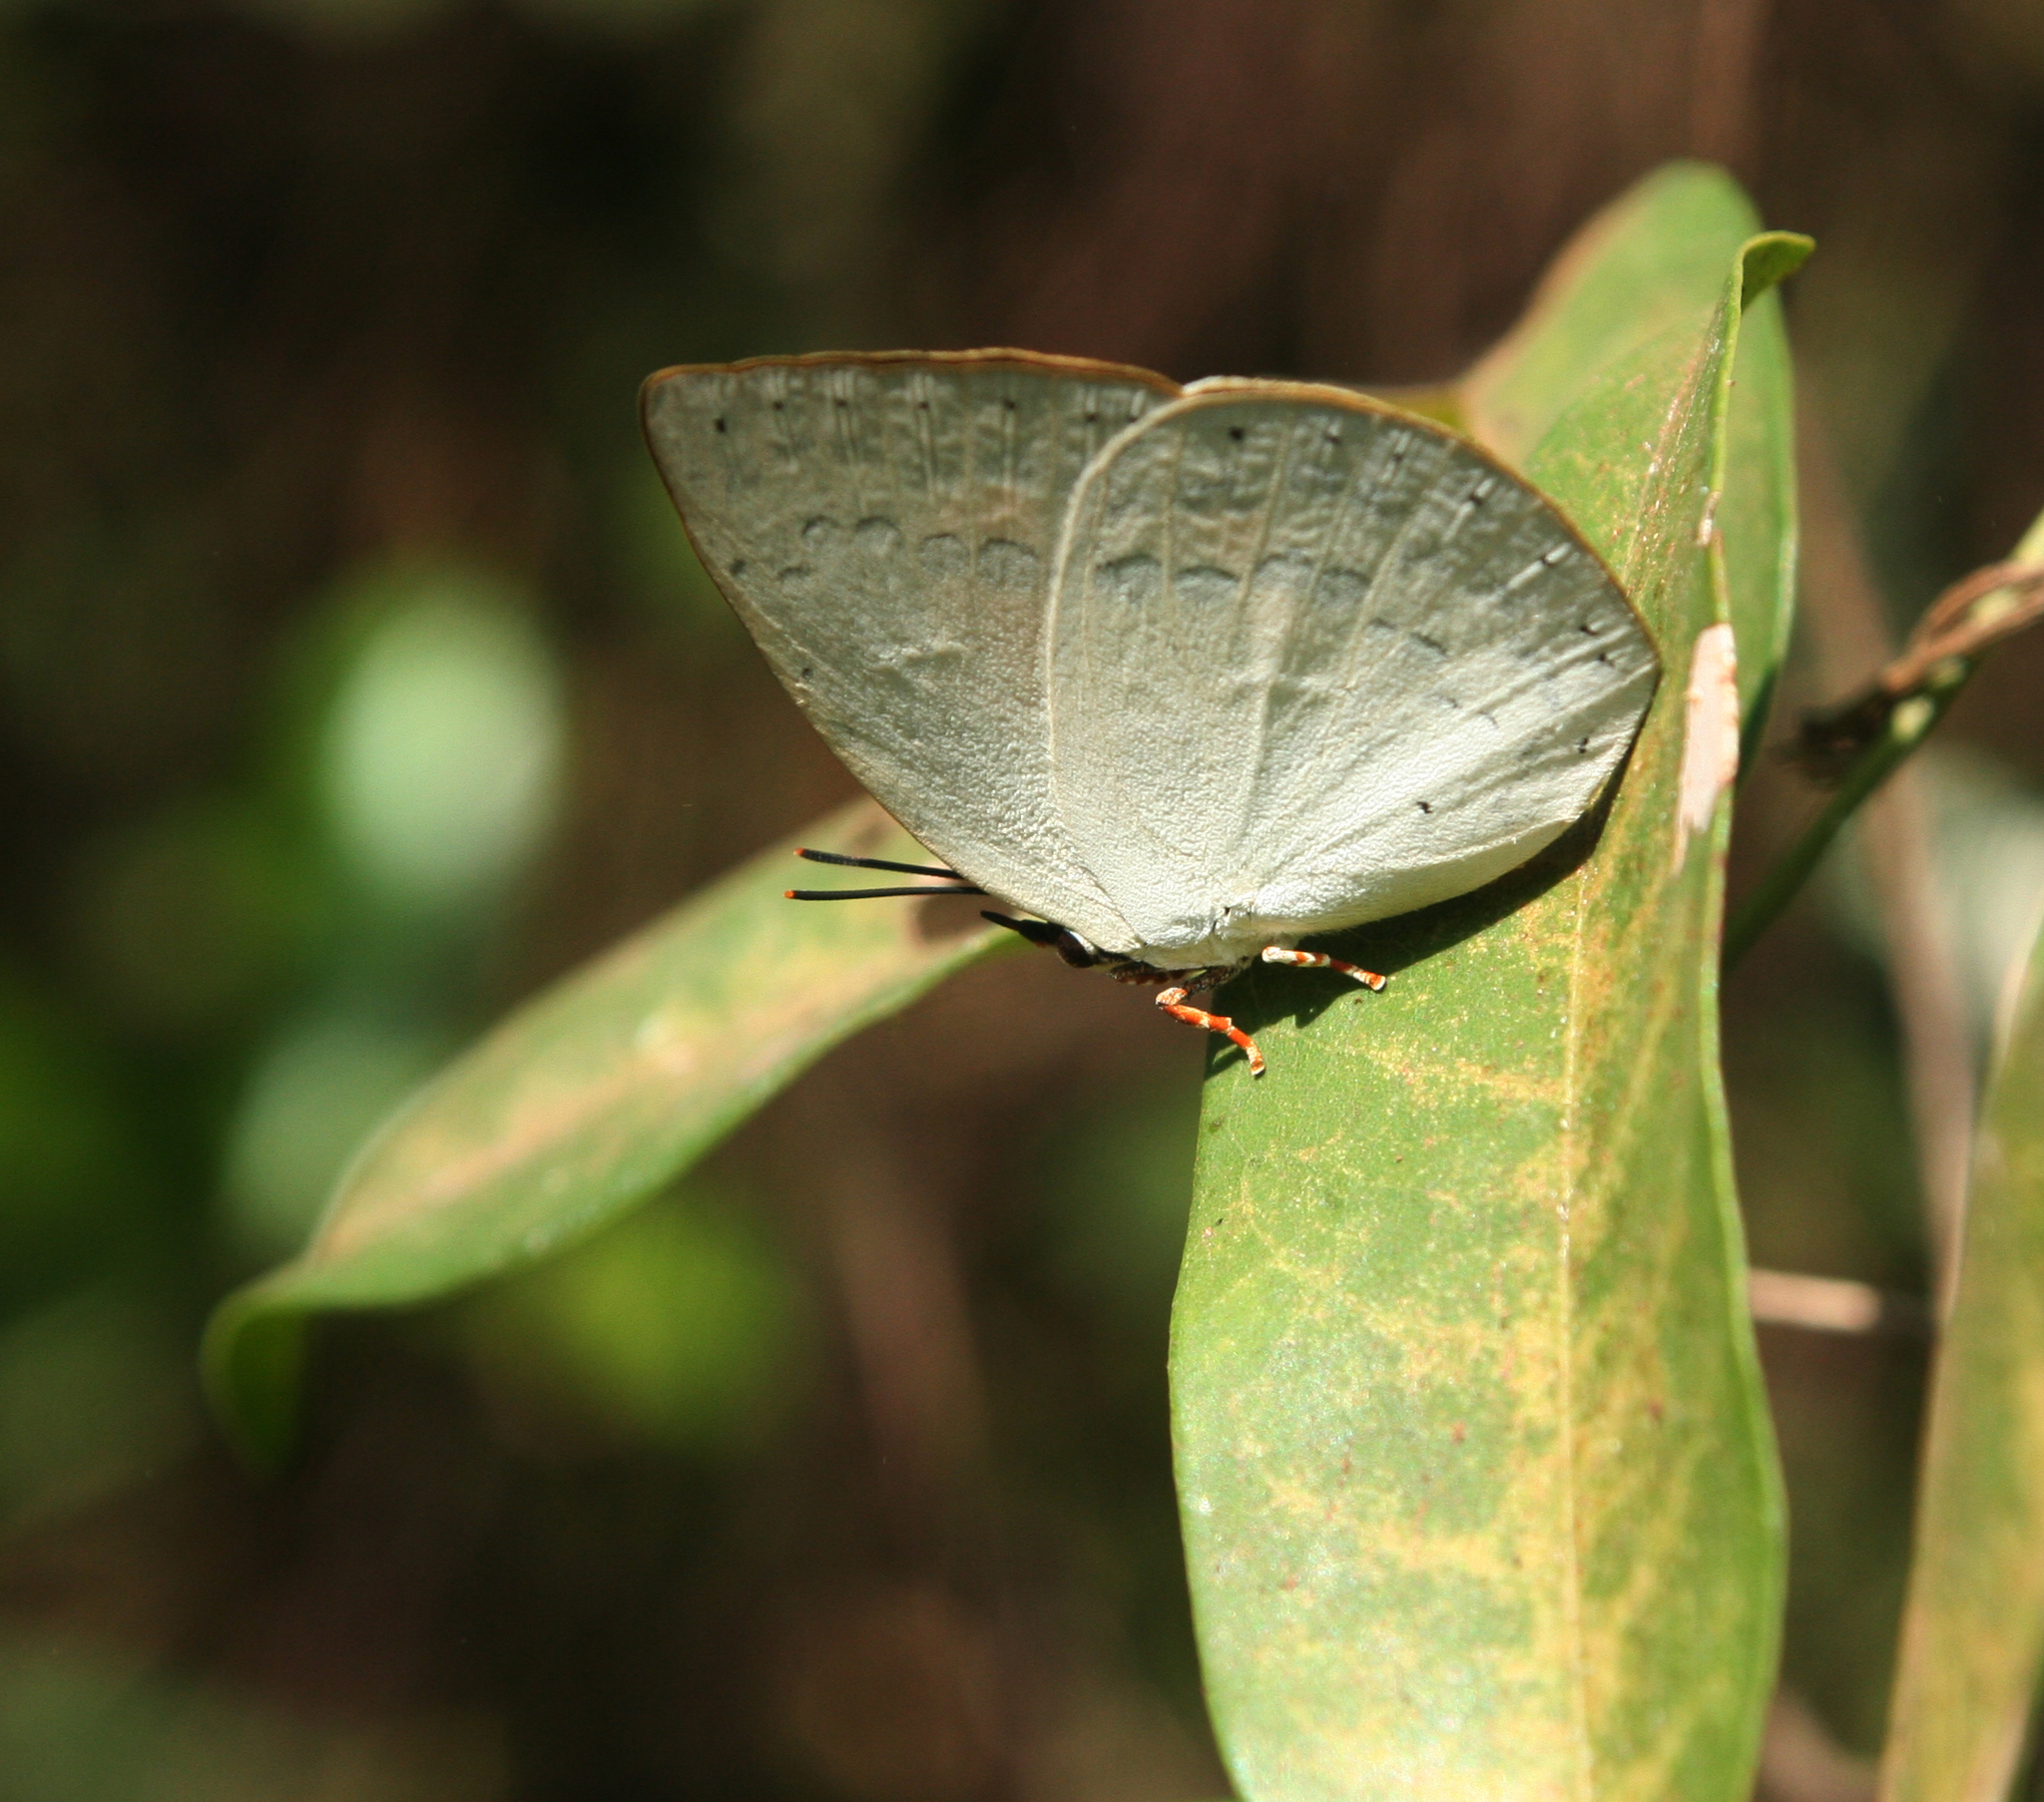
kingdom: Animalia
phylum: Arthropoda
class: Insecta
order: Lepidoptera
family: Lycaenidae
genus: Curetis
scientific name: Curetis saronis
